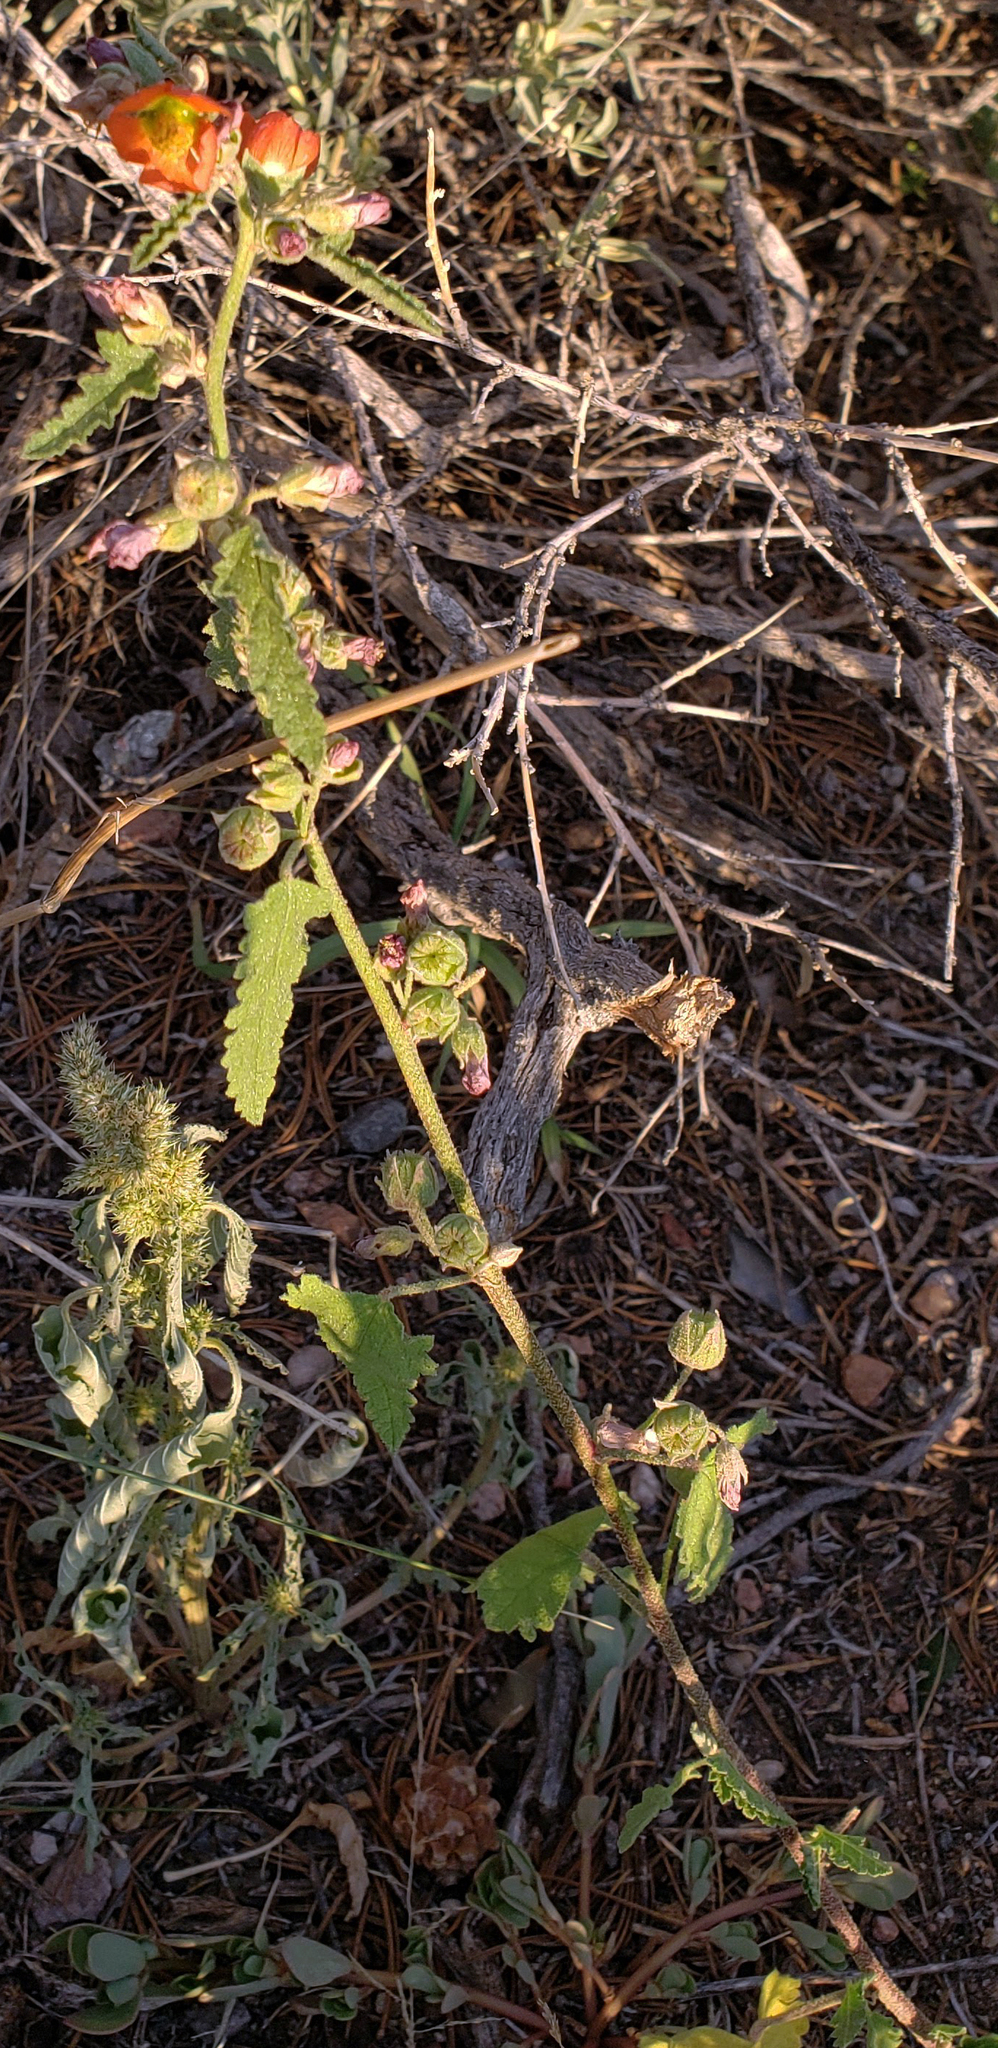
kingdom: Plantae
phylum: Tracheophyta
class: Magnoliopsida
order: Malvales
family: Malvaceae
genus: Sphaeralcea
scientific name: Sphaeralcea fendleri
